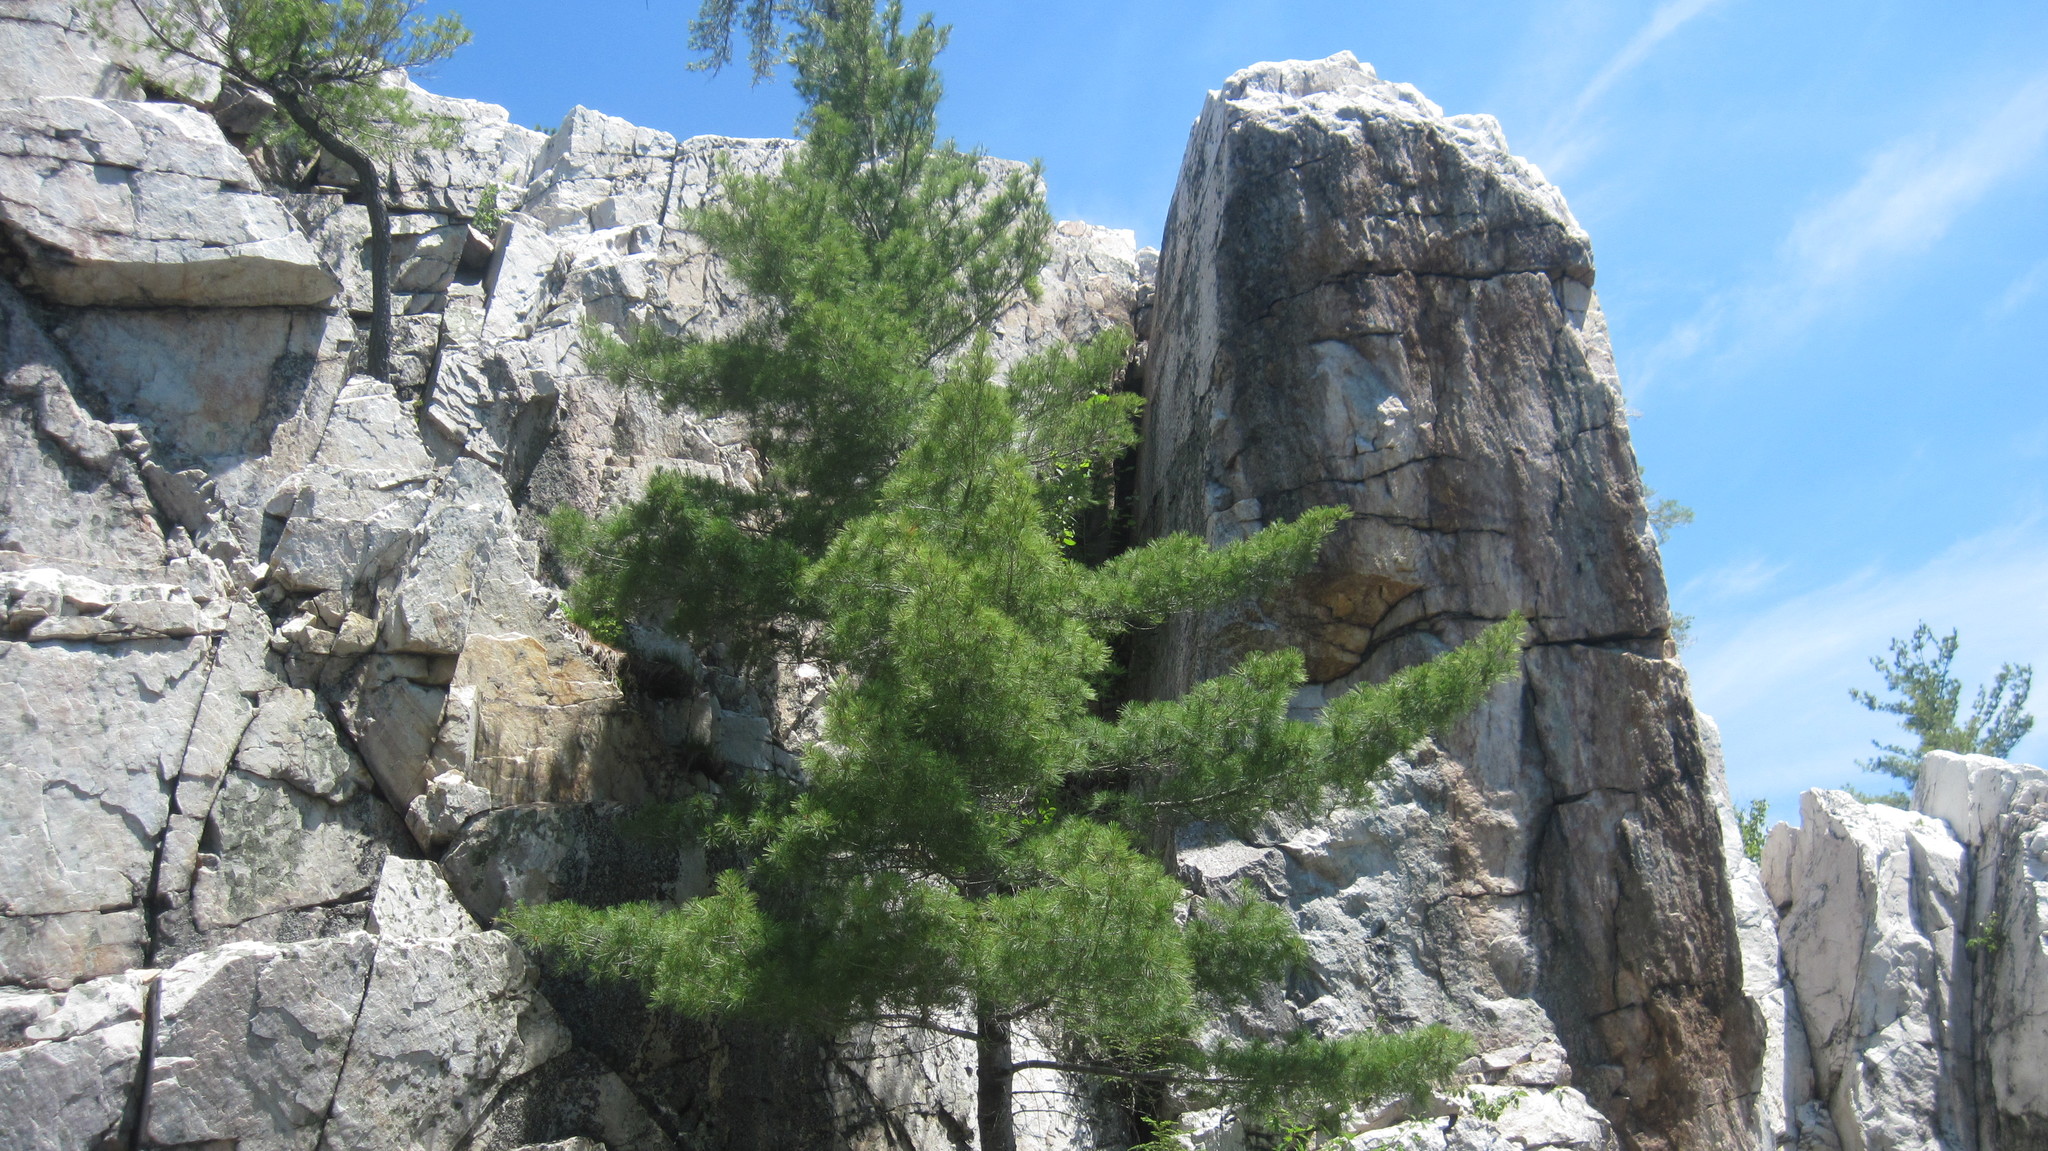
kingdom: Plantae
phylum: Tracheophyta
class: Pinopsida
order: Pinales
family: Pinaceae
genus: Pinus
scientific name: Pinus strobus
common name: Weymouth pine
